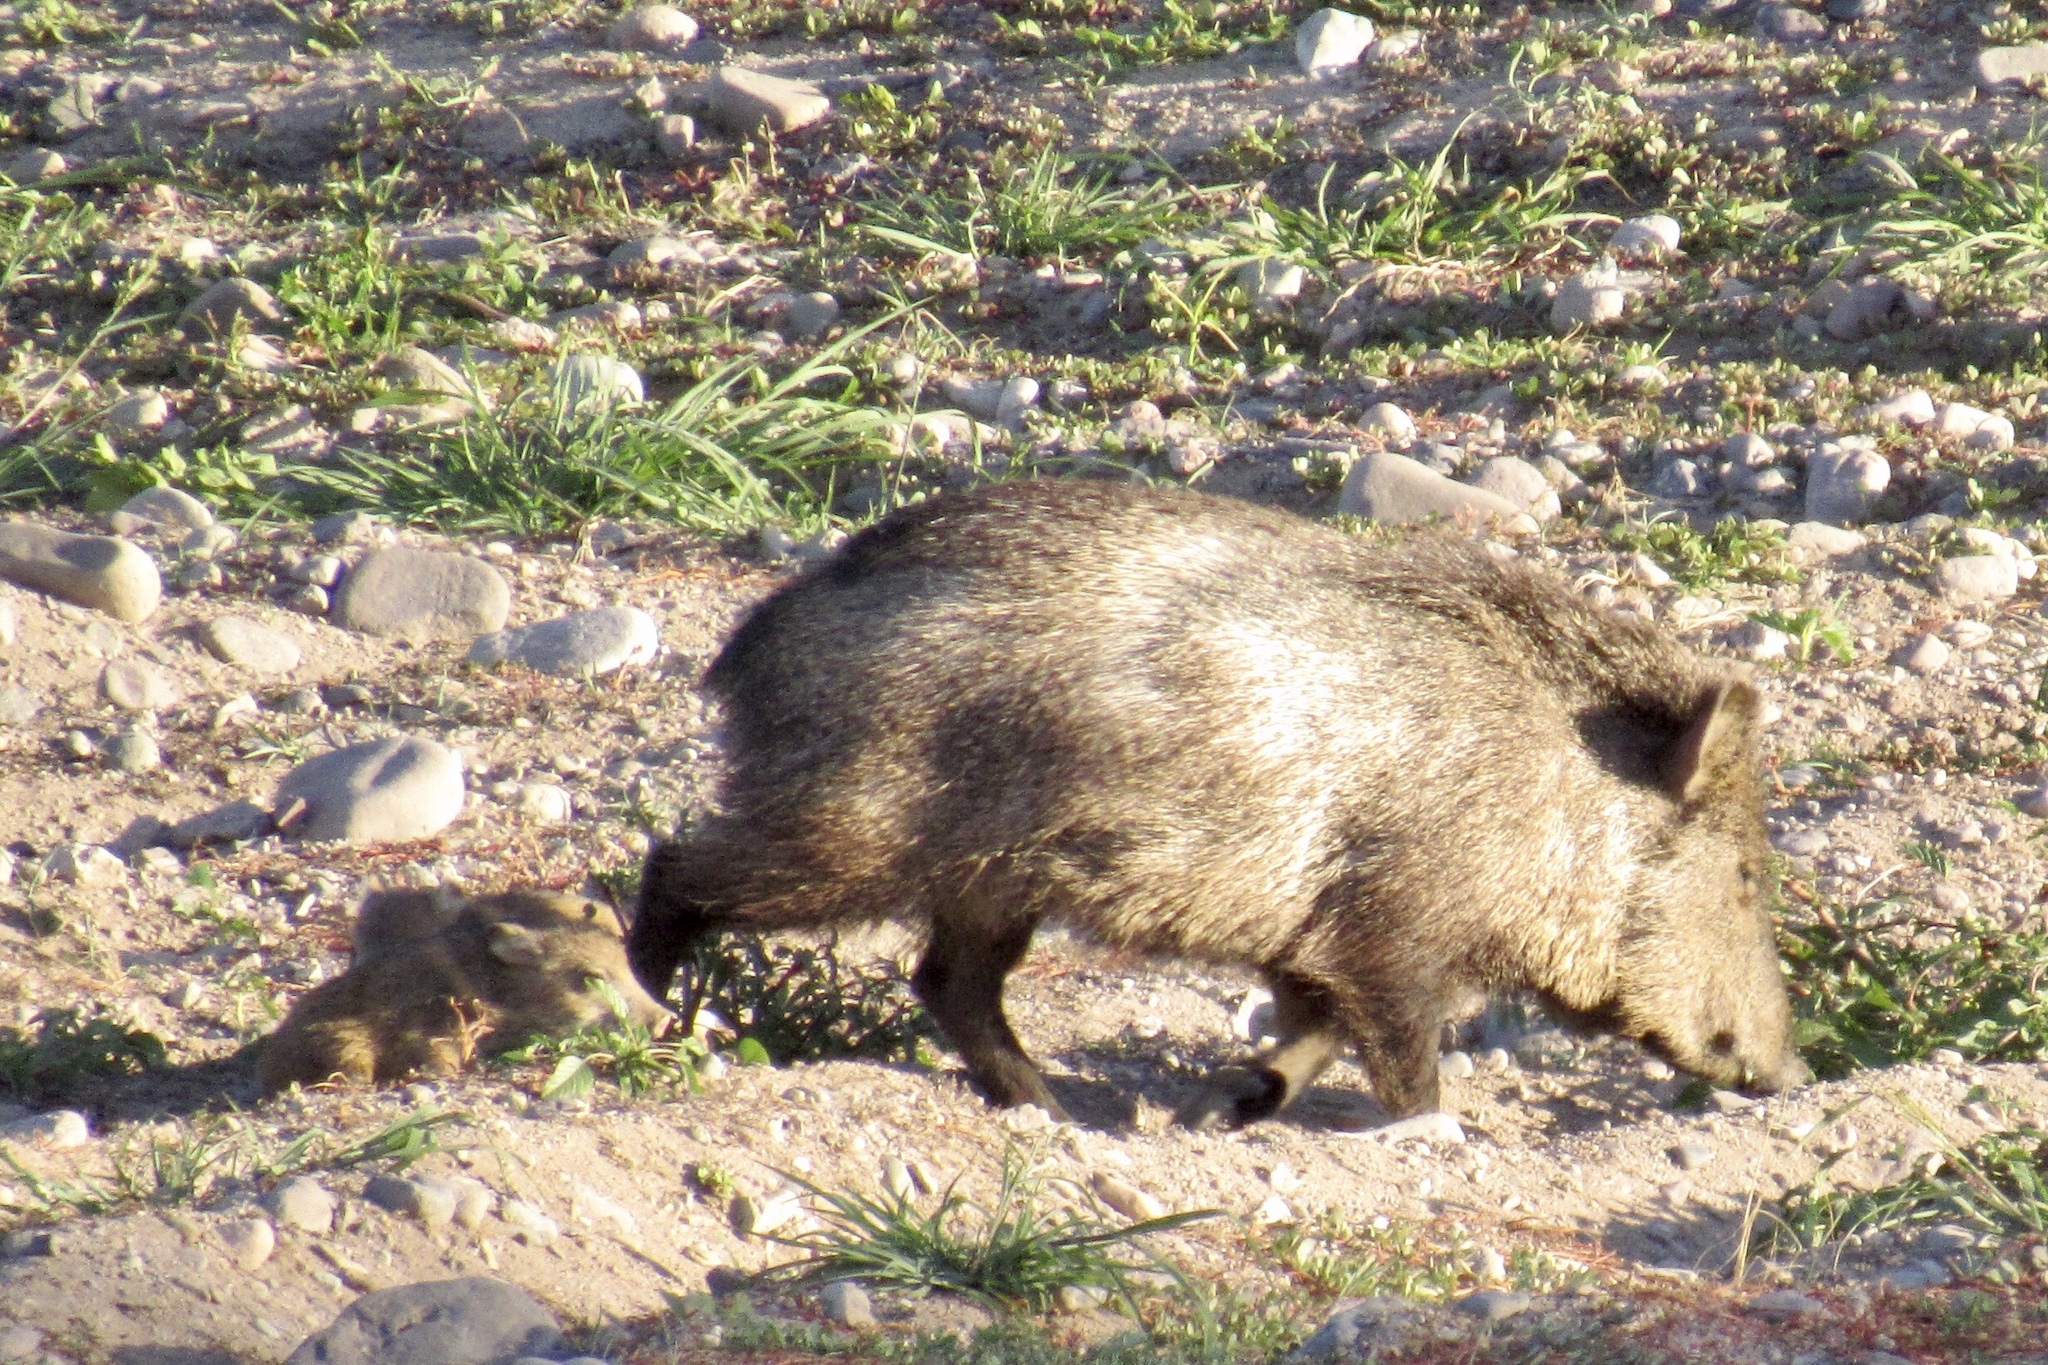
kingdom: Animalia
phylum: Chordata
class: Mammalia
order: Artiodactyla
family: Tayassuidae
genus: Pecari
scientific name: Pecari tajacu
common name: Collared peccary
